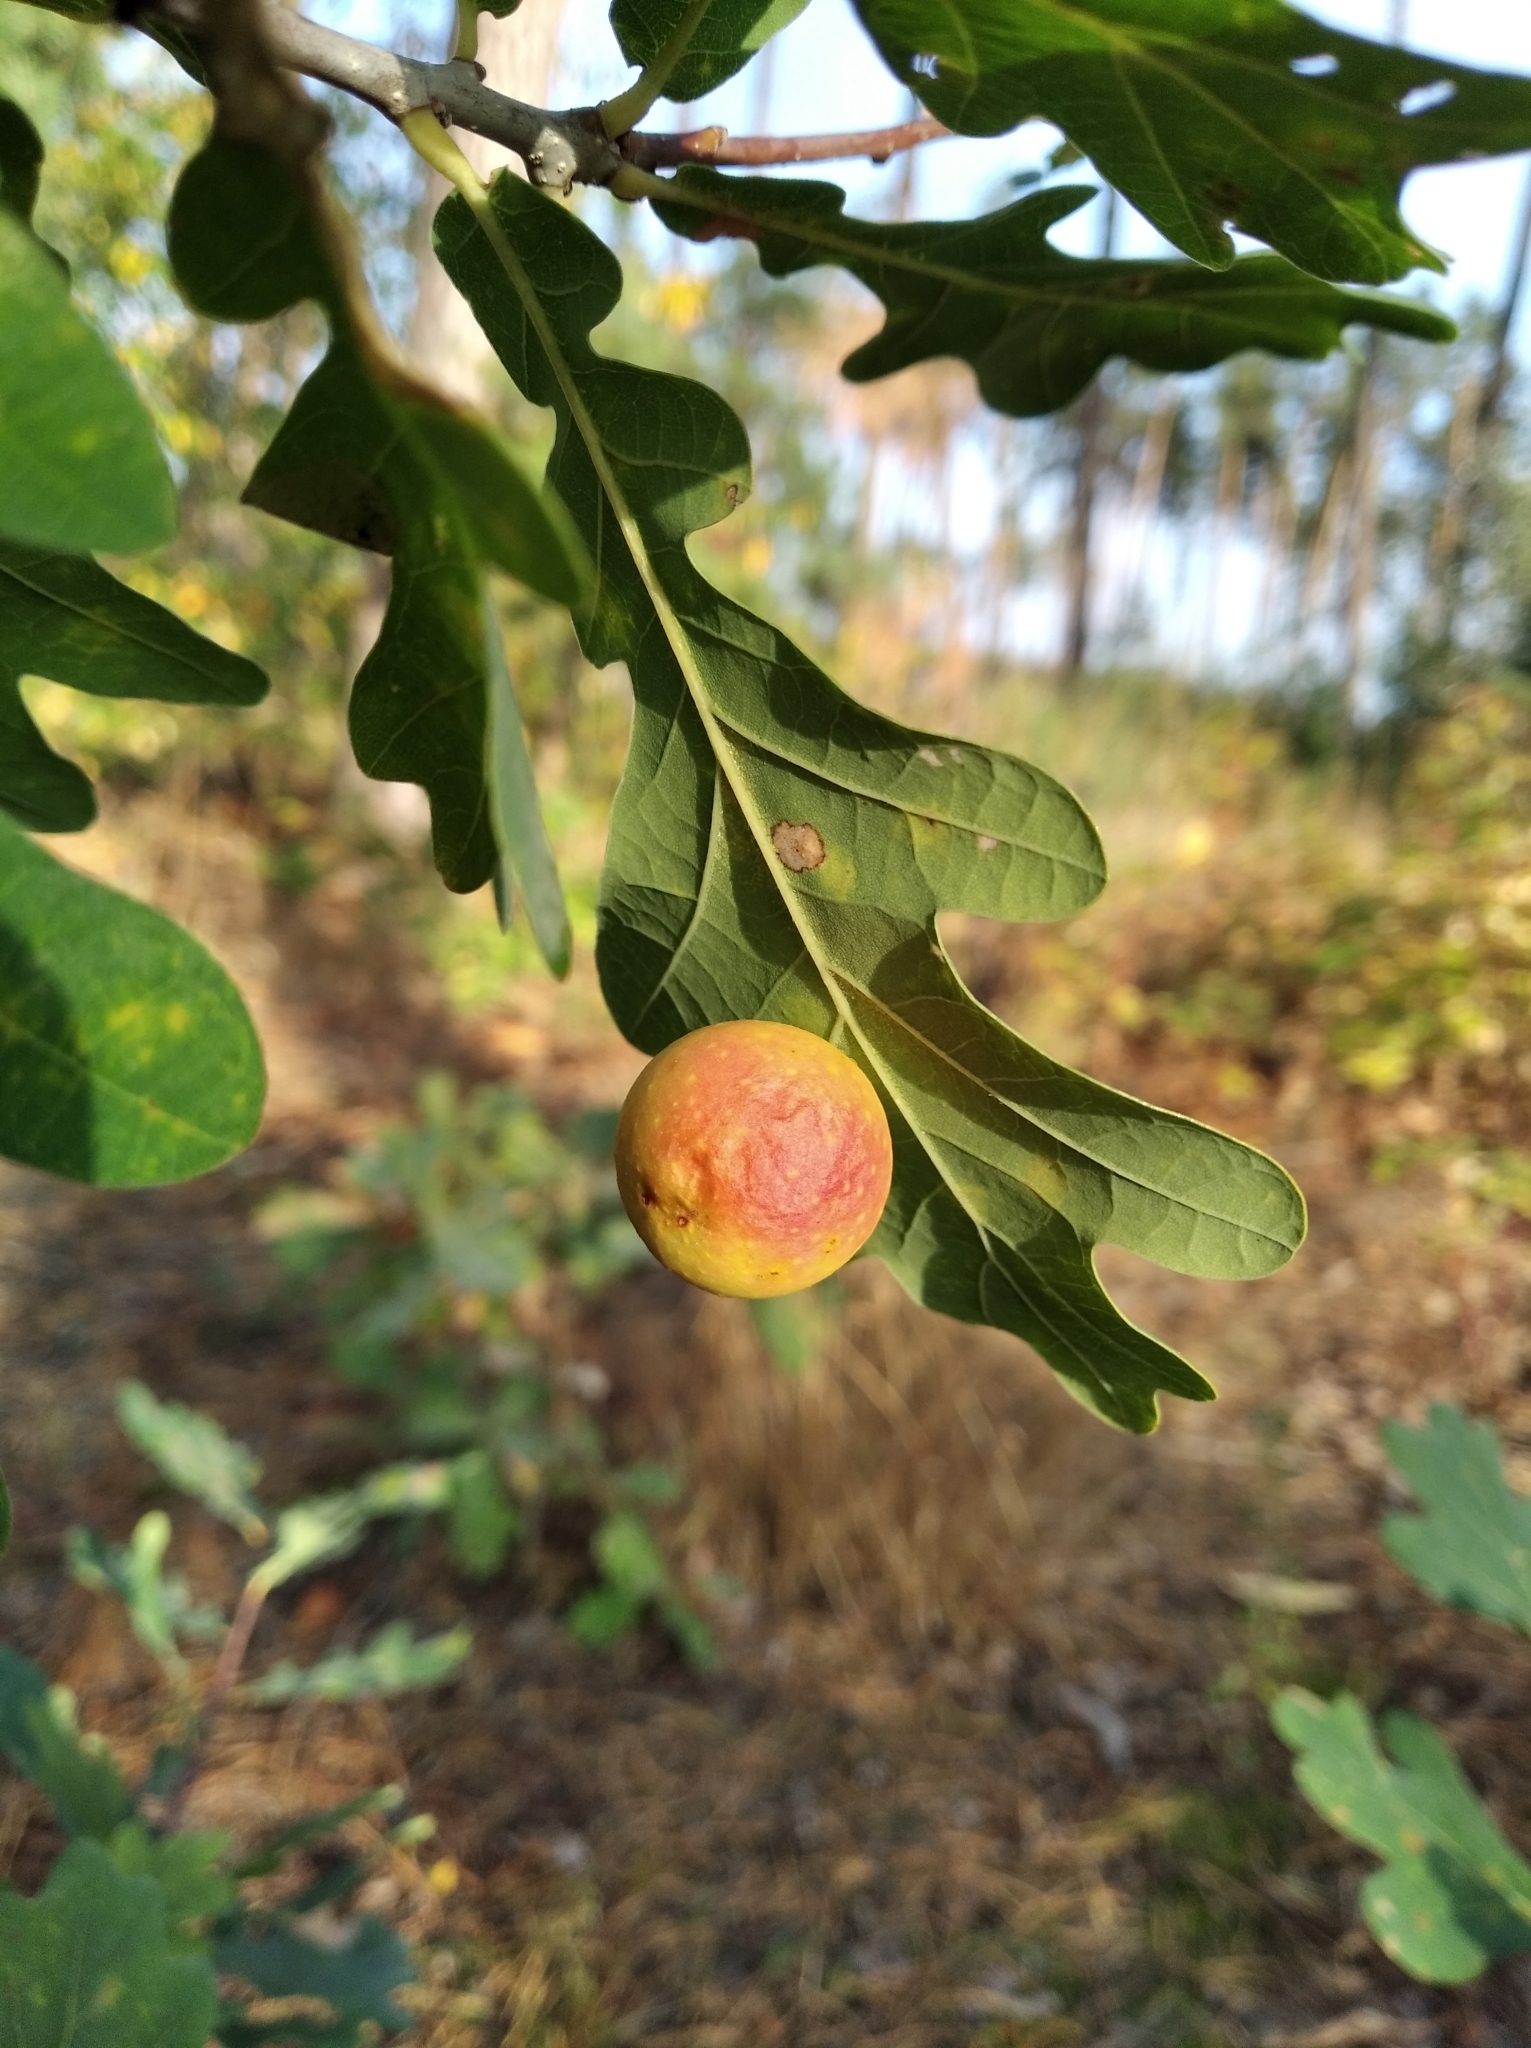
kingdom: Animalia
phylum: Arthropoda
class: Insecta
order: Hymenoptera
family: Cynipidae
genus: Cynips
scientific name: Cynips quercusfolii
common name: Cherry gall
